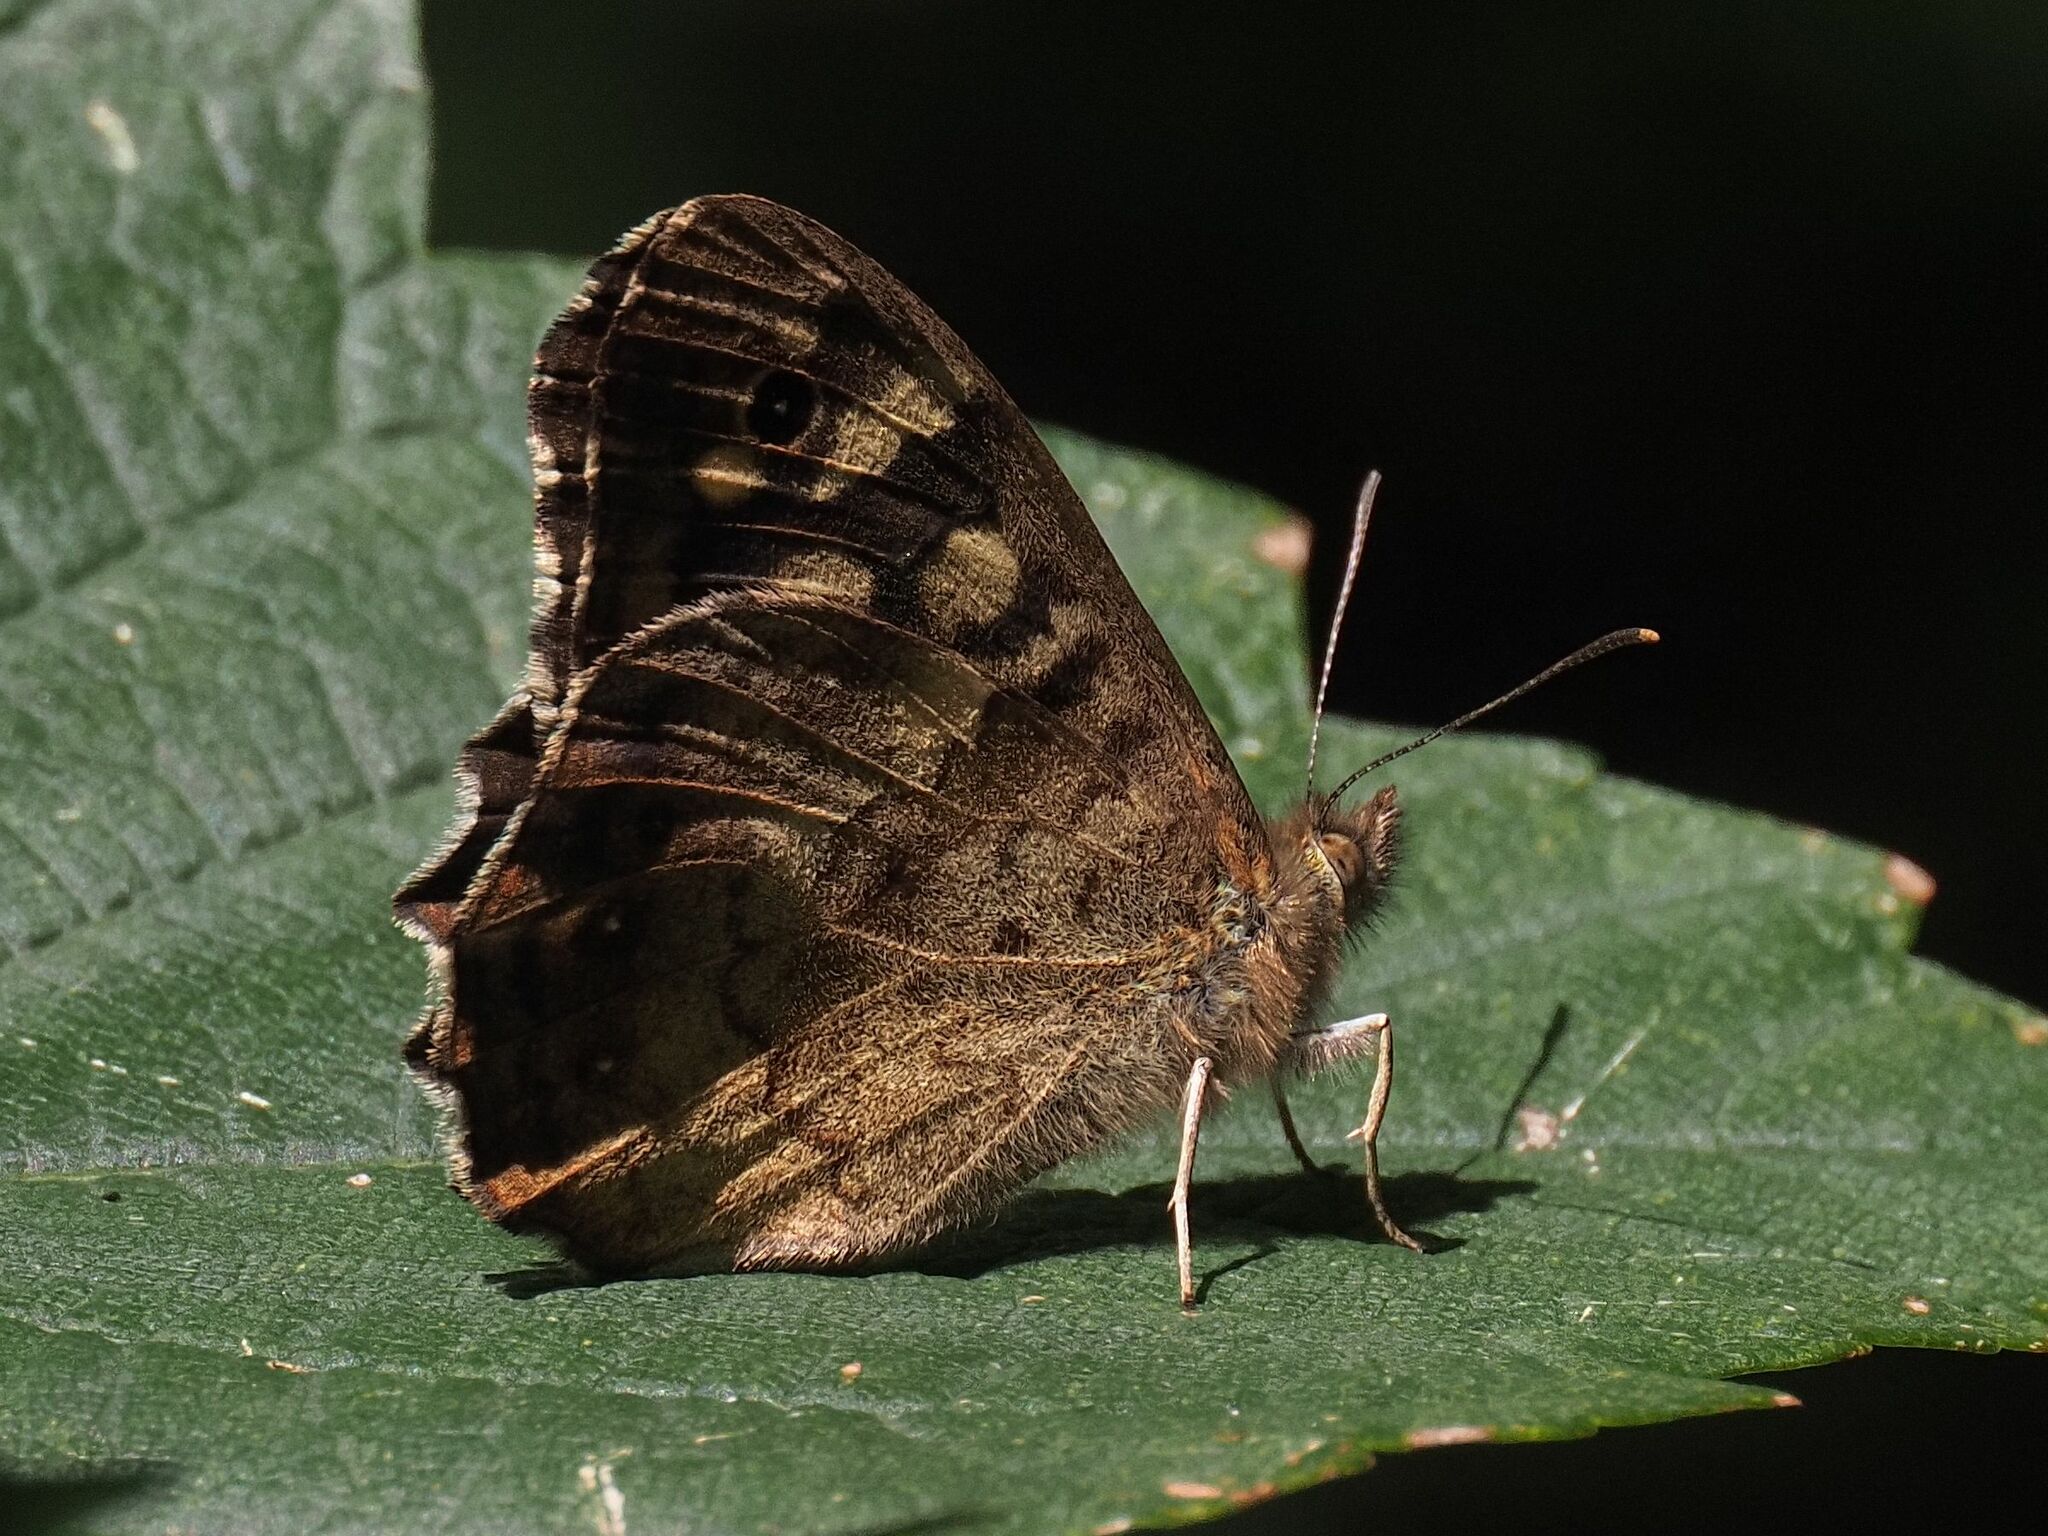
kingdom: Animalia
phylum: Arthropoda
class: Insecta
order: Lepidoptera
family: Nymphalidae
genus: Pararge
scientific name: Pararge aegeria
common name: Speckled wood
